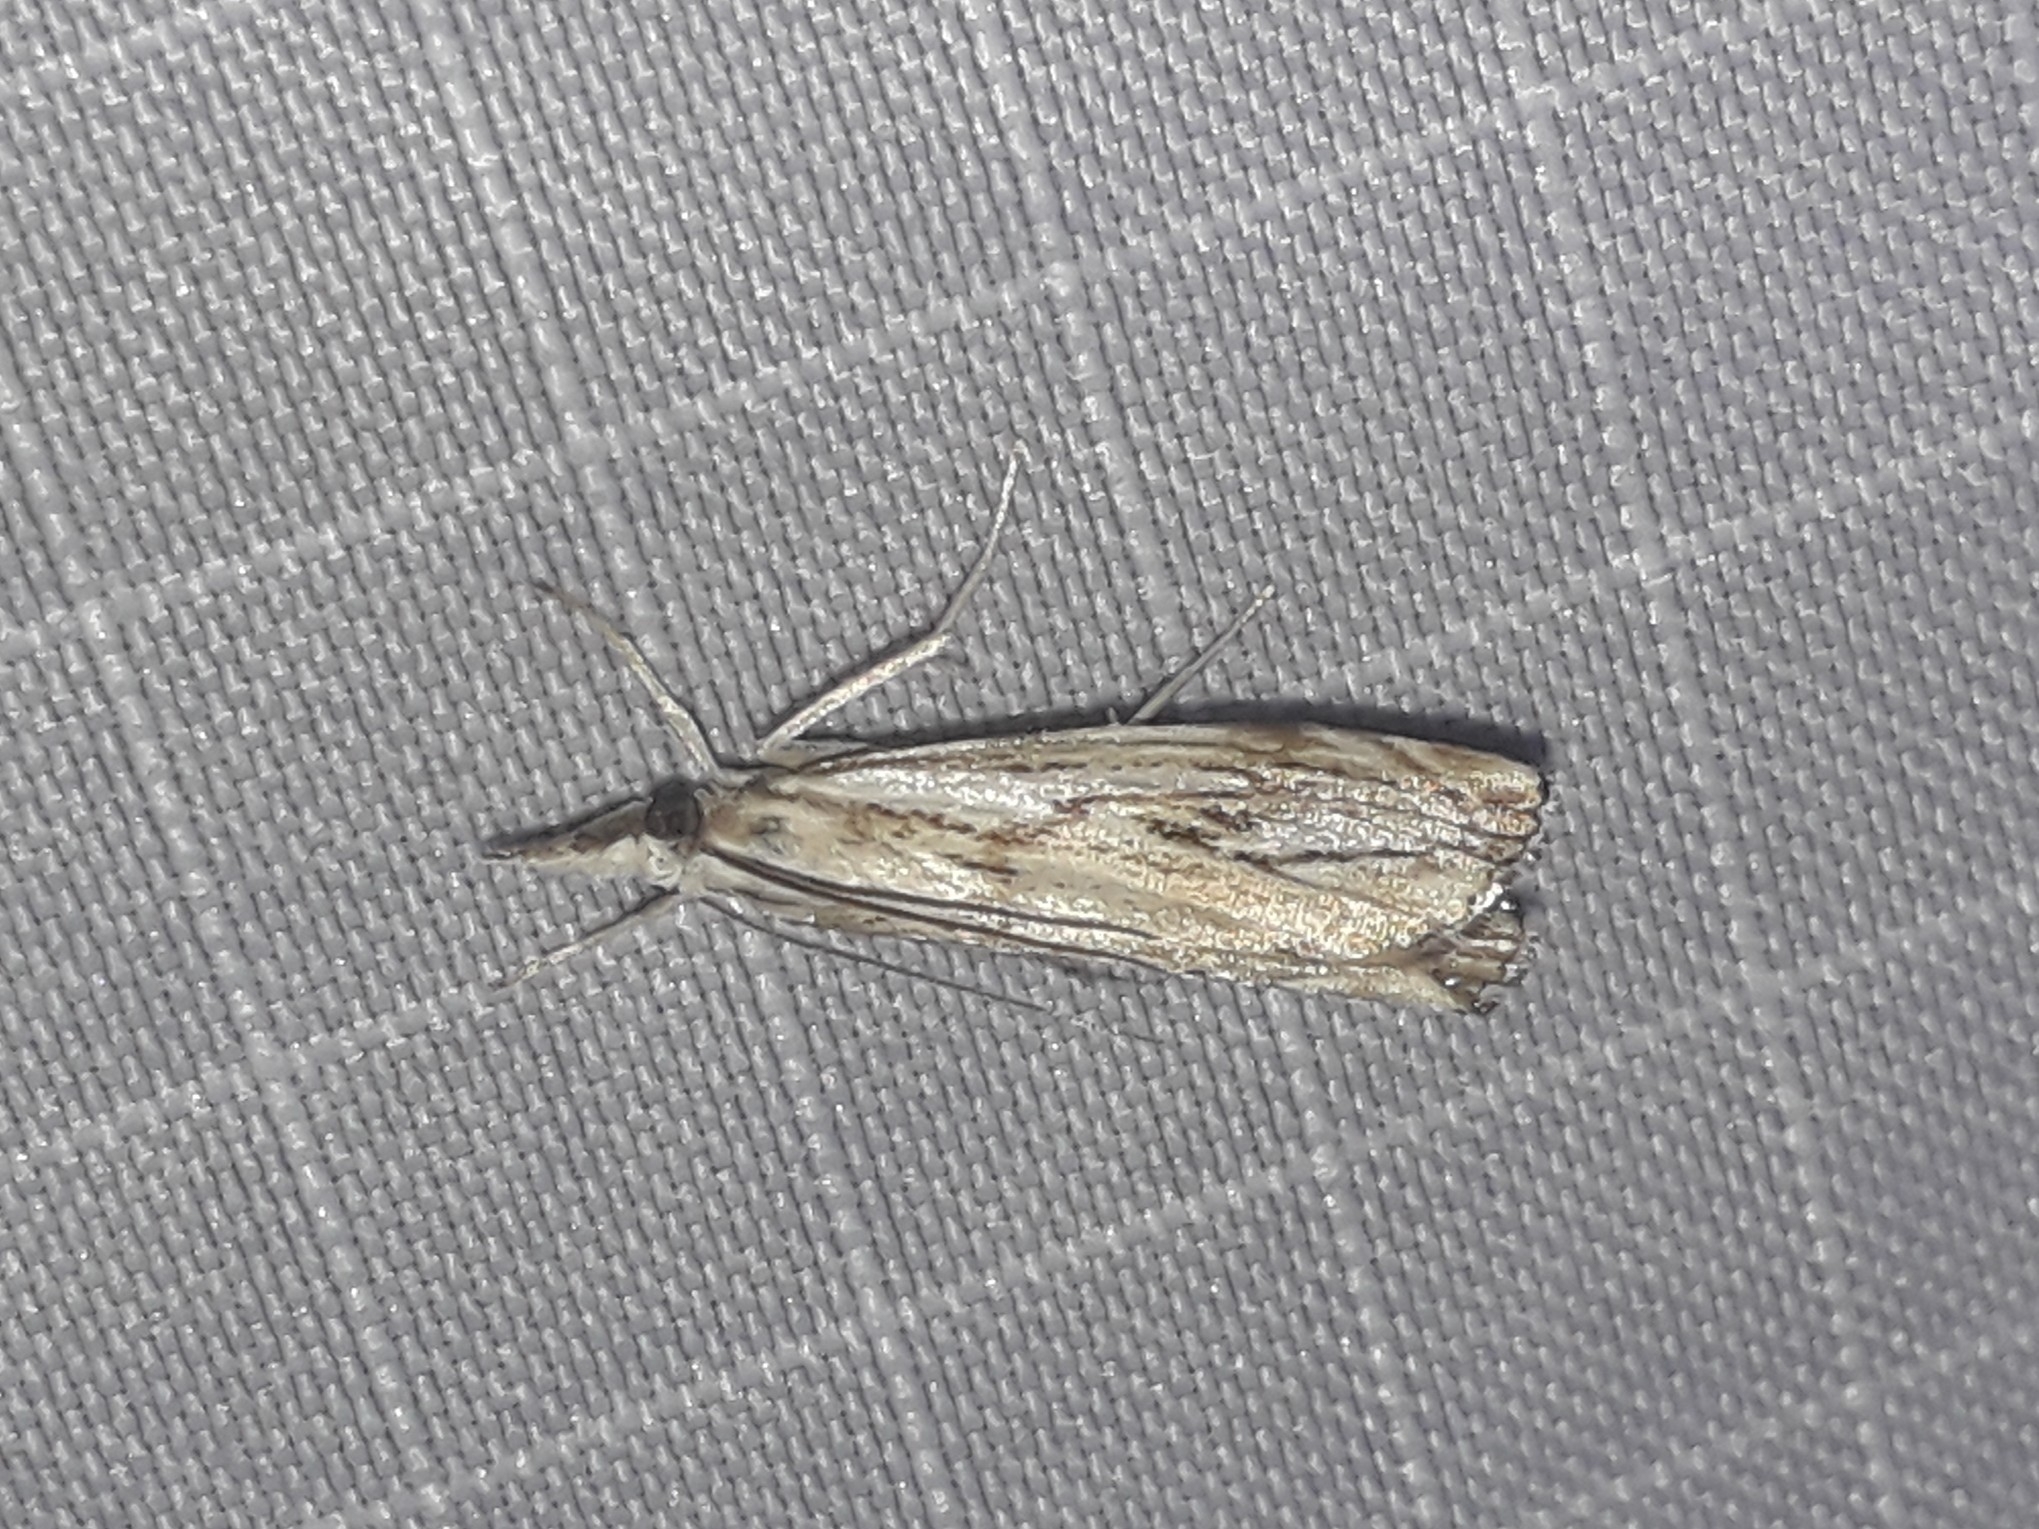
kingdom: Animalia
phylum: Arthropoda
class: Insecta
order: Lepidoptera
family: Crambidae
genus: Catoptria
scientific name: Catoptria falsella
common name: Chequered grass-veneer
